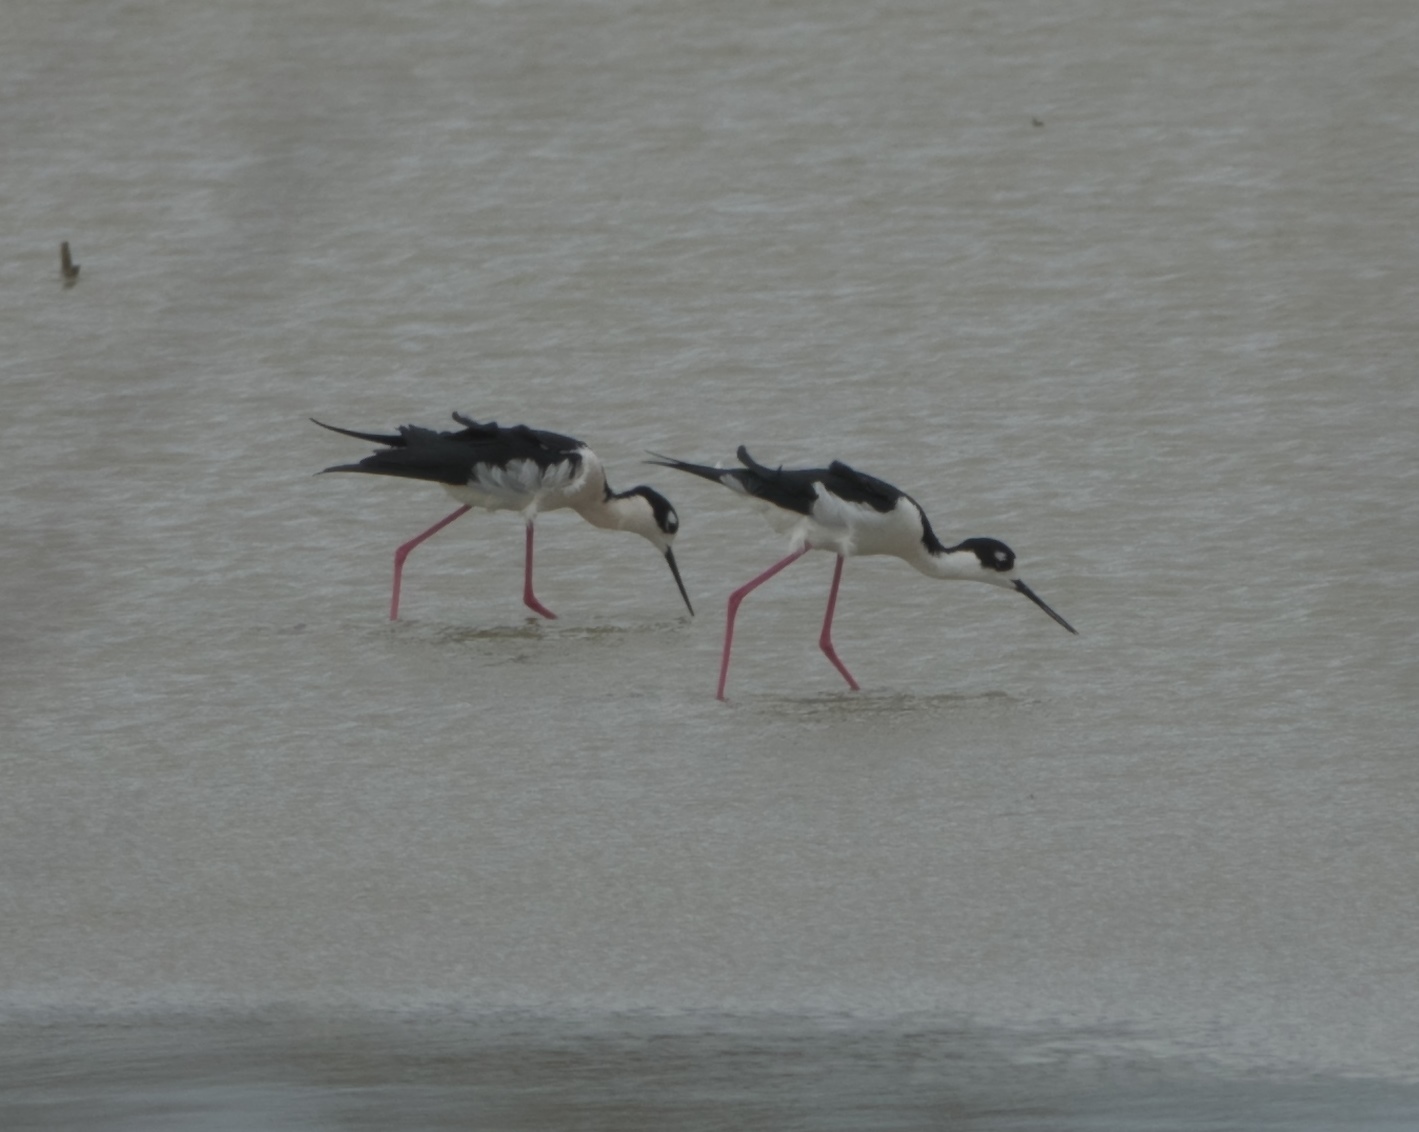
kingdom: Animalia
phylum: Chordata
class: Aves
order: Charadriiformes
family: Recurvirostridae
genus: Himantopus
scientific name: Himantopus mexicanus
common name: Black-necked stilt
